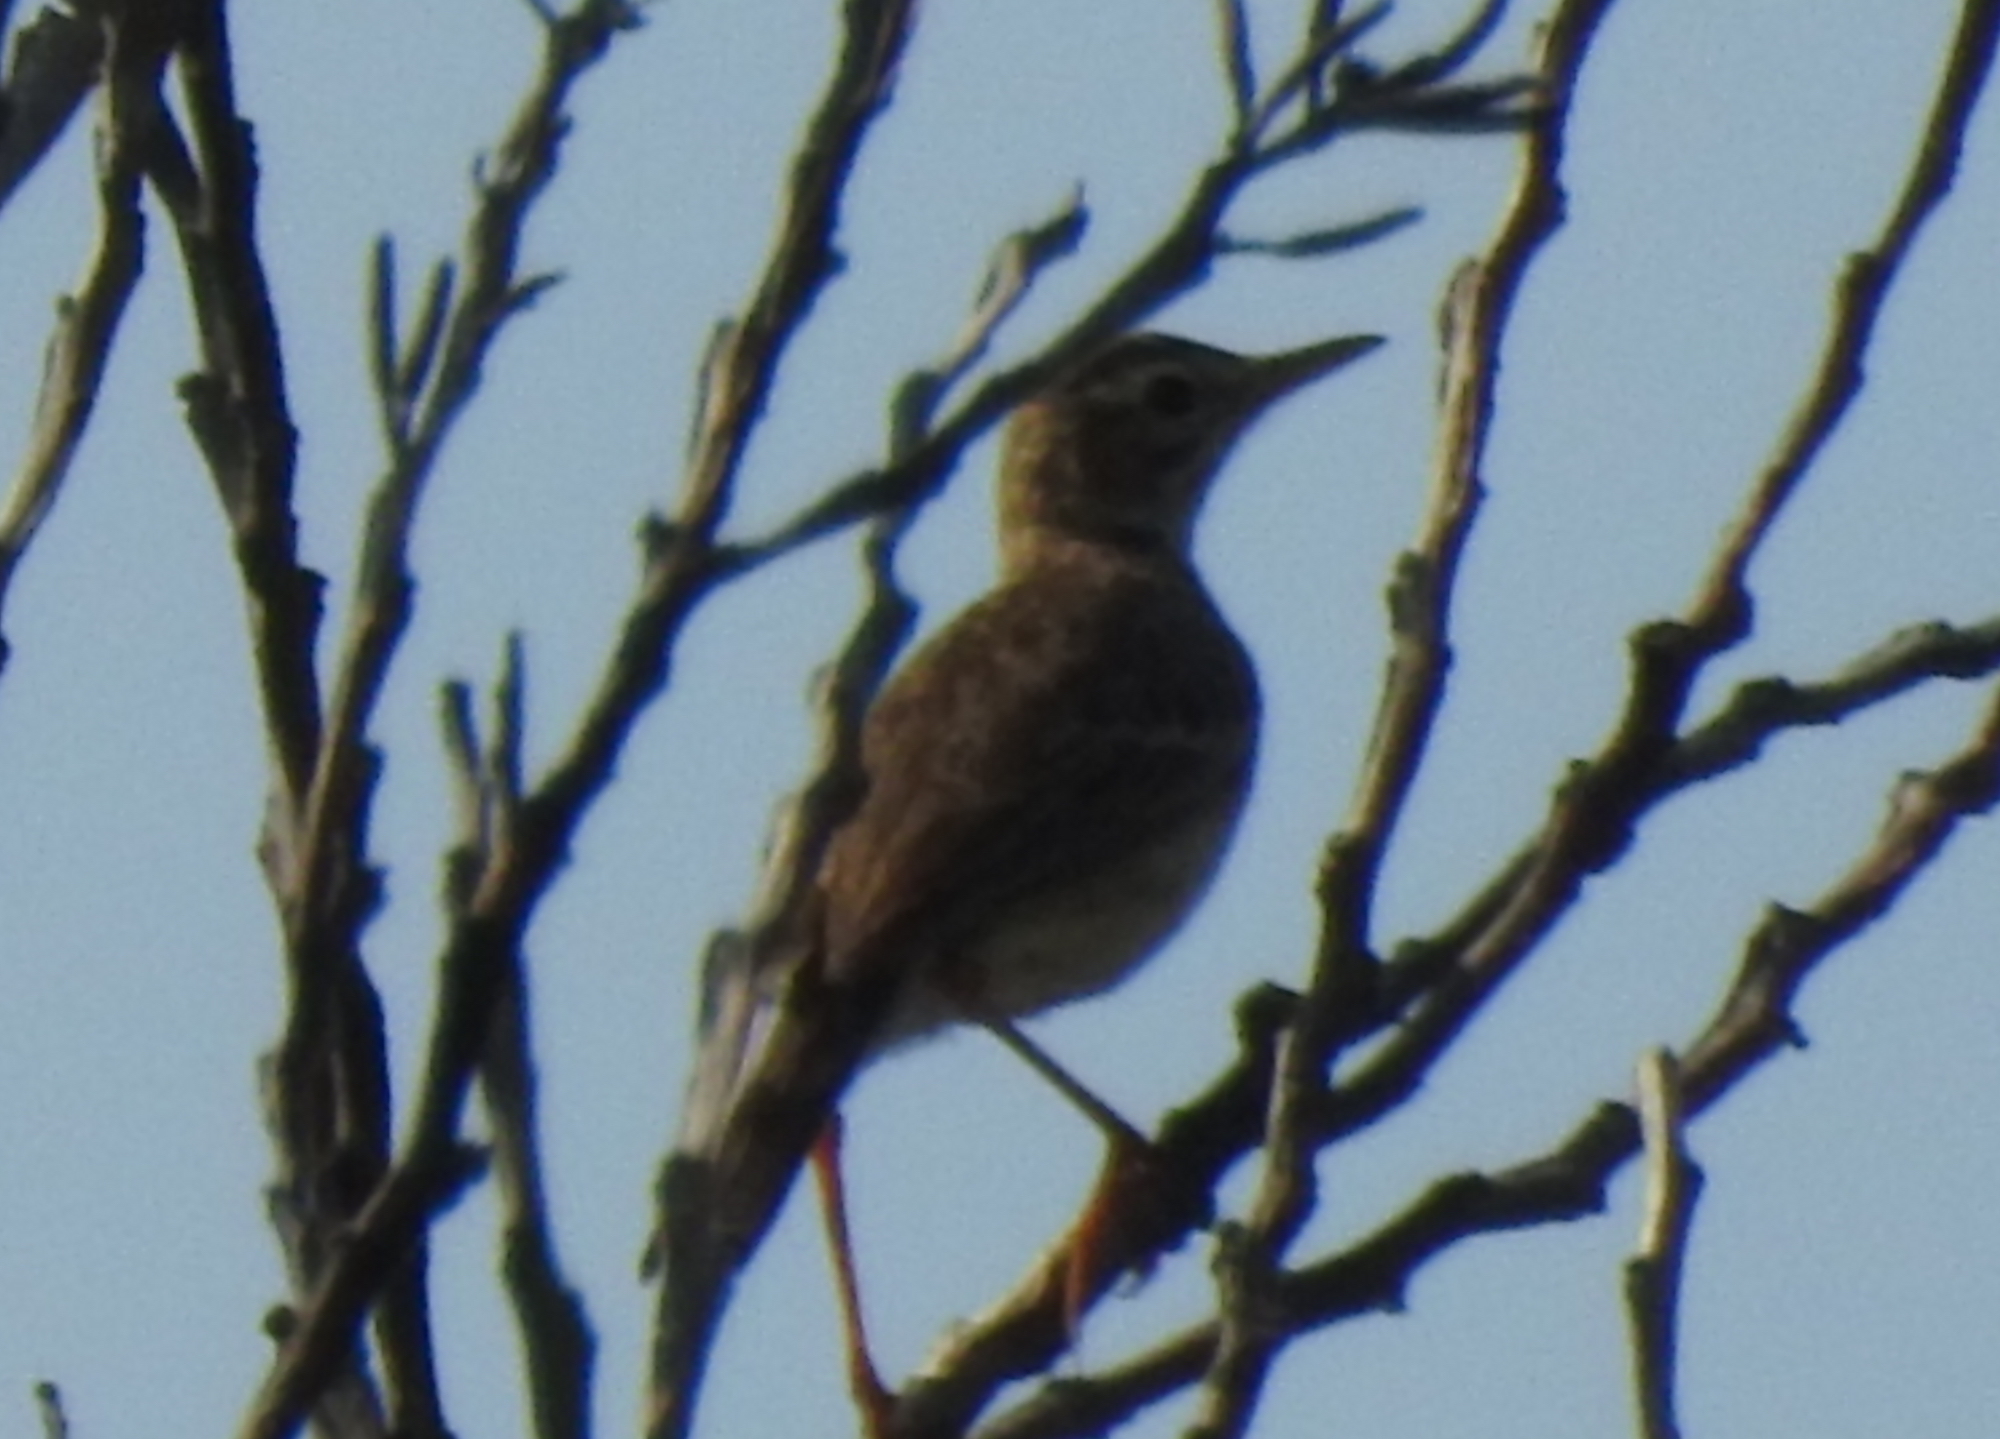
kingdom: Animalia
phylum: Chordata
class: Aves
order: Passeriformes
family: Motacillidae
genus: Anthus
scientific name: Anthus rufulus
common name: Paddyfield pipit
